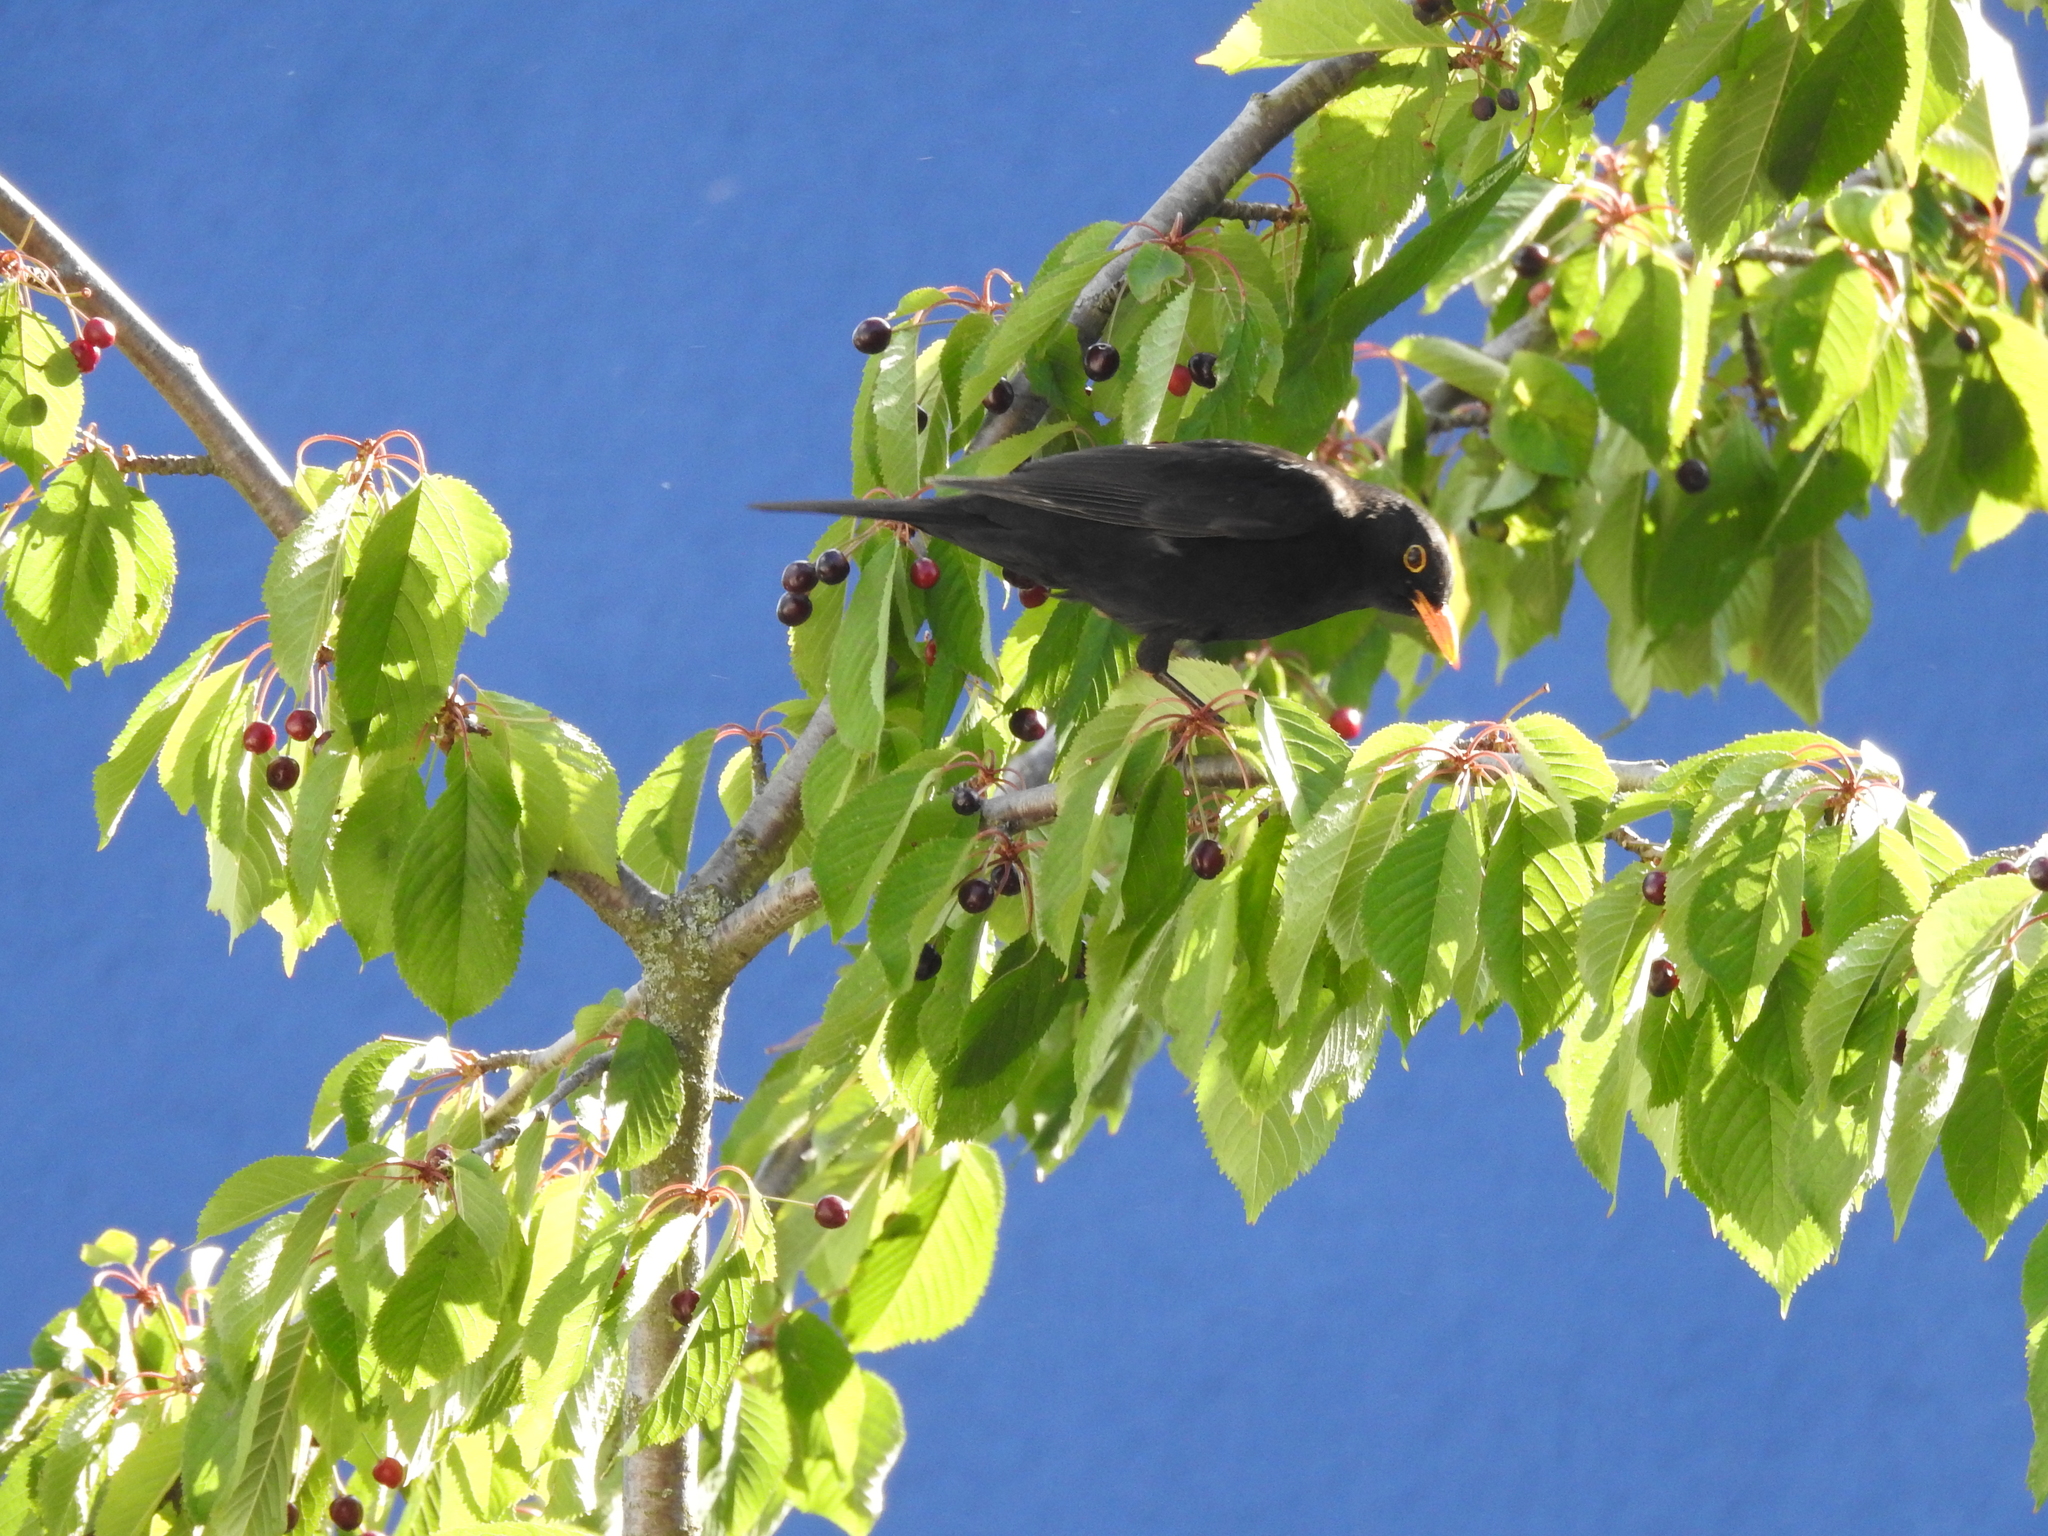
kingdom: Animalia
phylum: Chordata
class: Aves
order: Passeriformes
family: Turdidae
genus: Turdus
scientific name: Turdus merula
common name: Common blackbird
